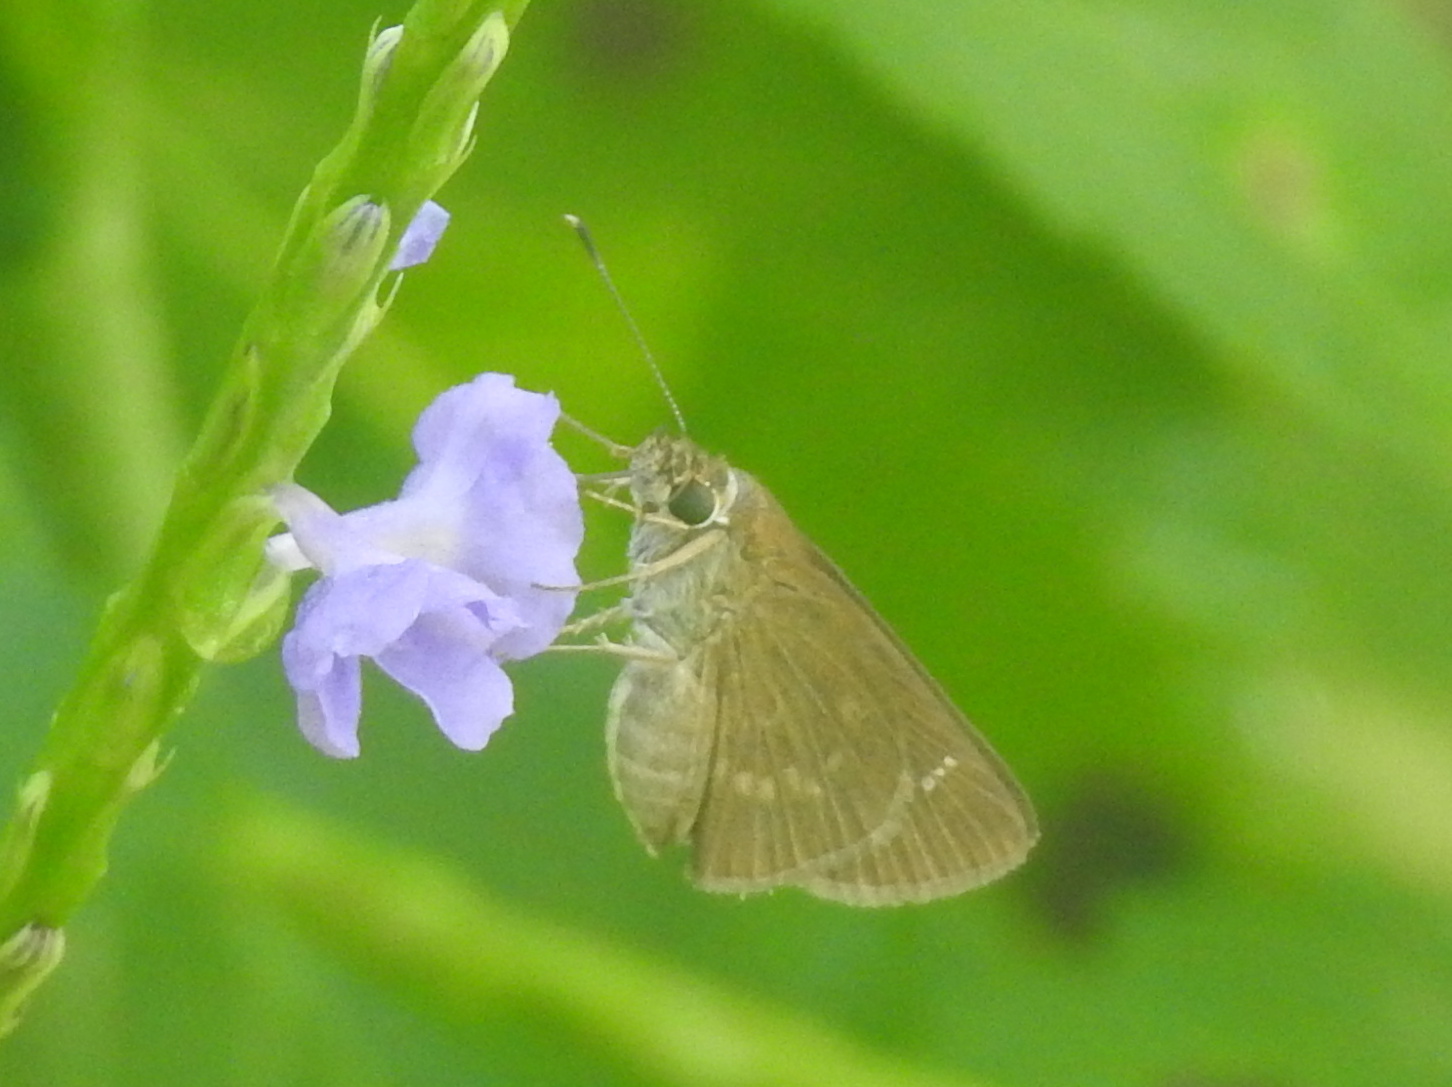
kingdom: Animalia
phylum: Arthropoda
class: Insecta
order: Lepidoptera
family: Hesperiidae
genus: Cymaenes
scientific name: Cymaenes tripunctus
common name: Dingy dotted skipper
